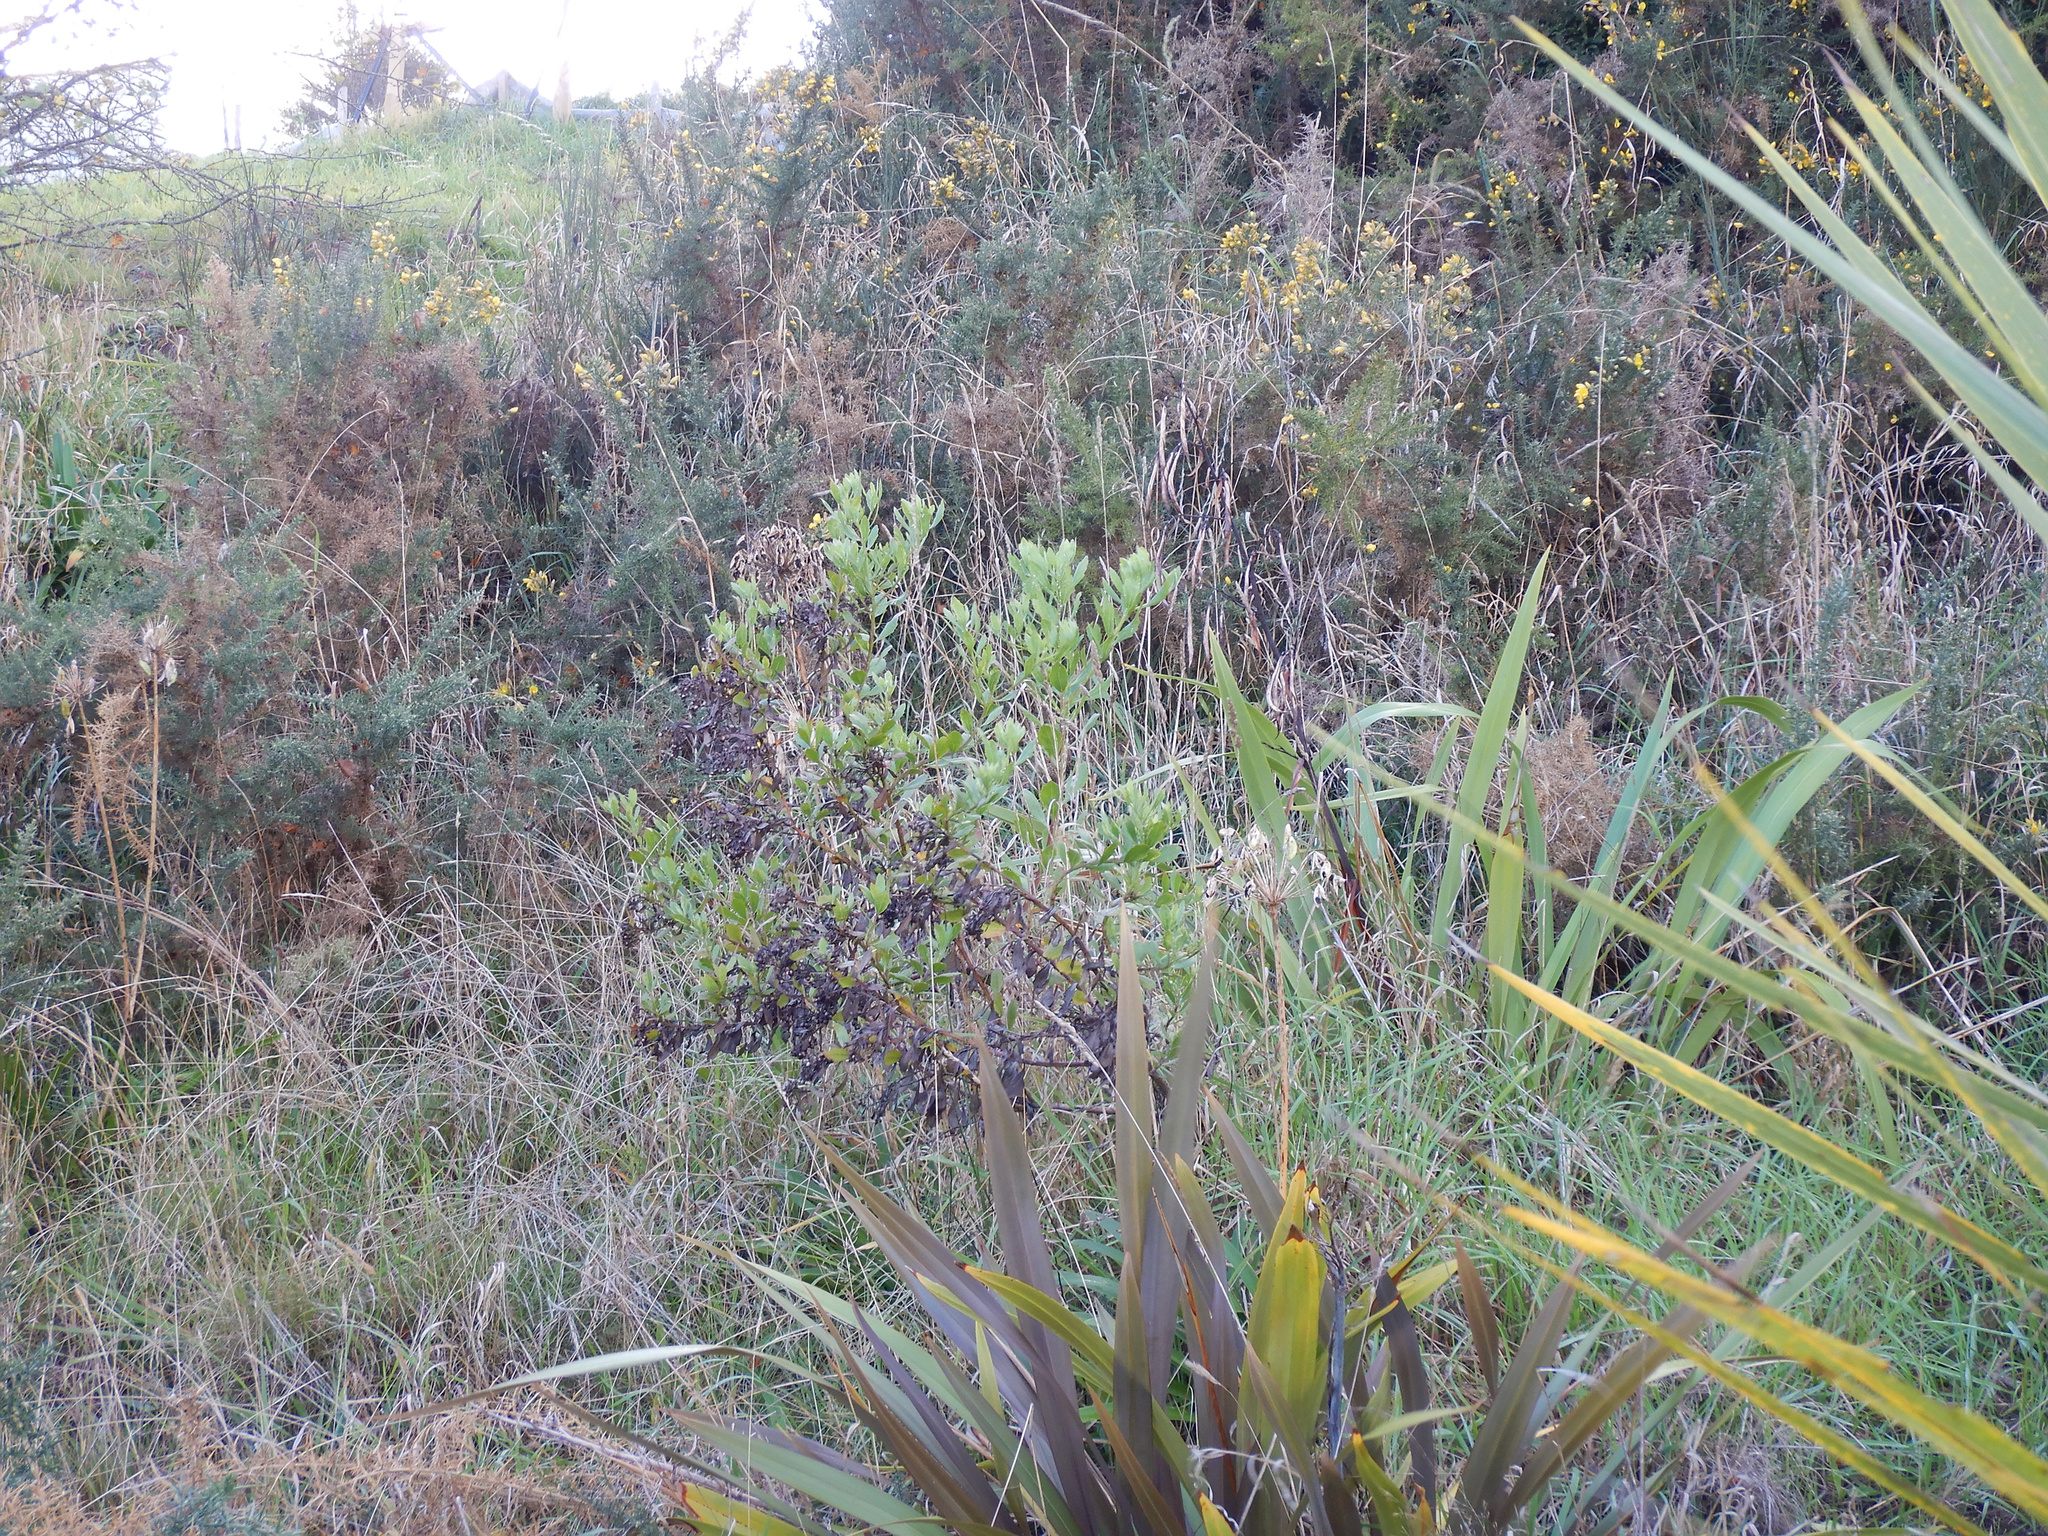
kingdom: Plantae
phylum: Tracheophyta
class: Magnoliopsida
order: Asterales
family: Asteraceae
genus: Osteospermum
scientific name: Osteospermum moniliferum
